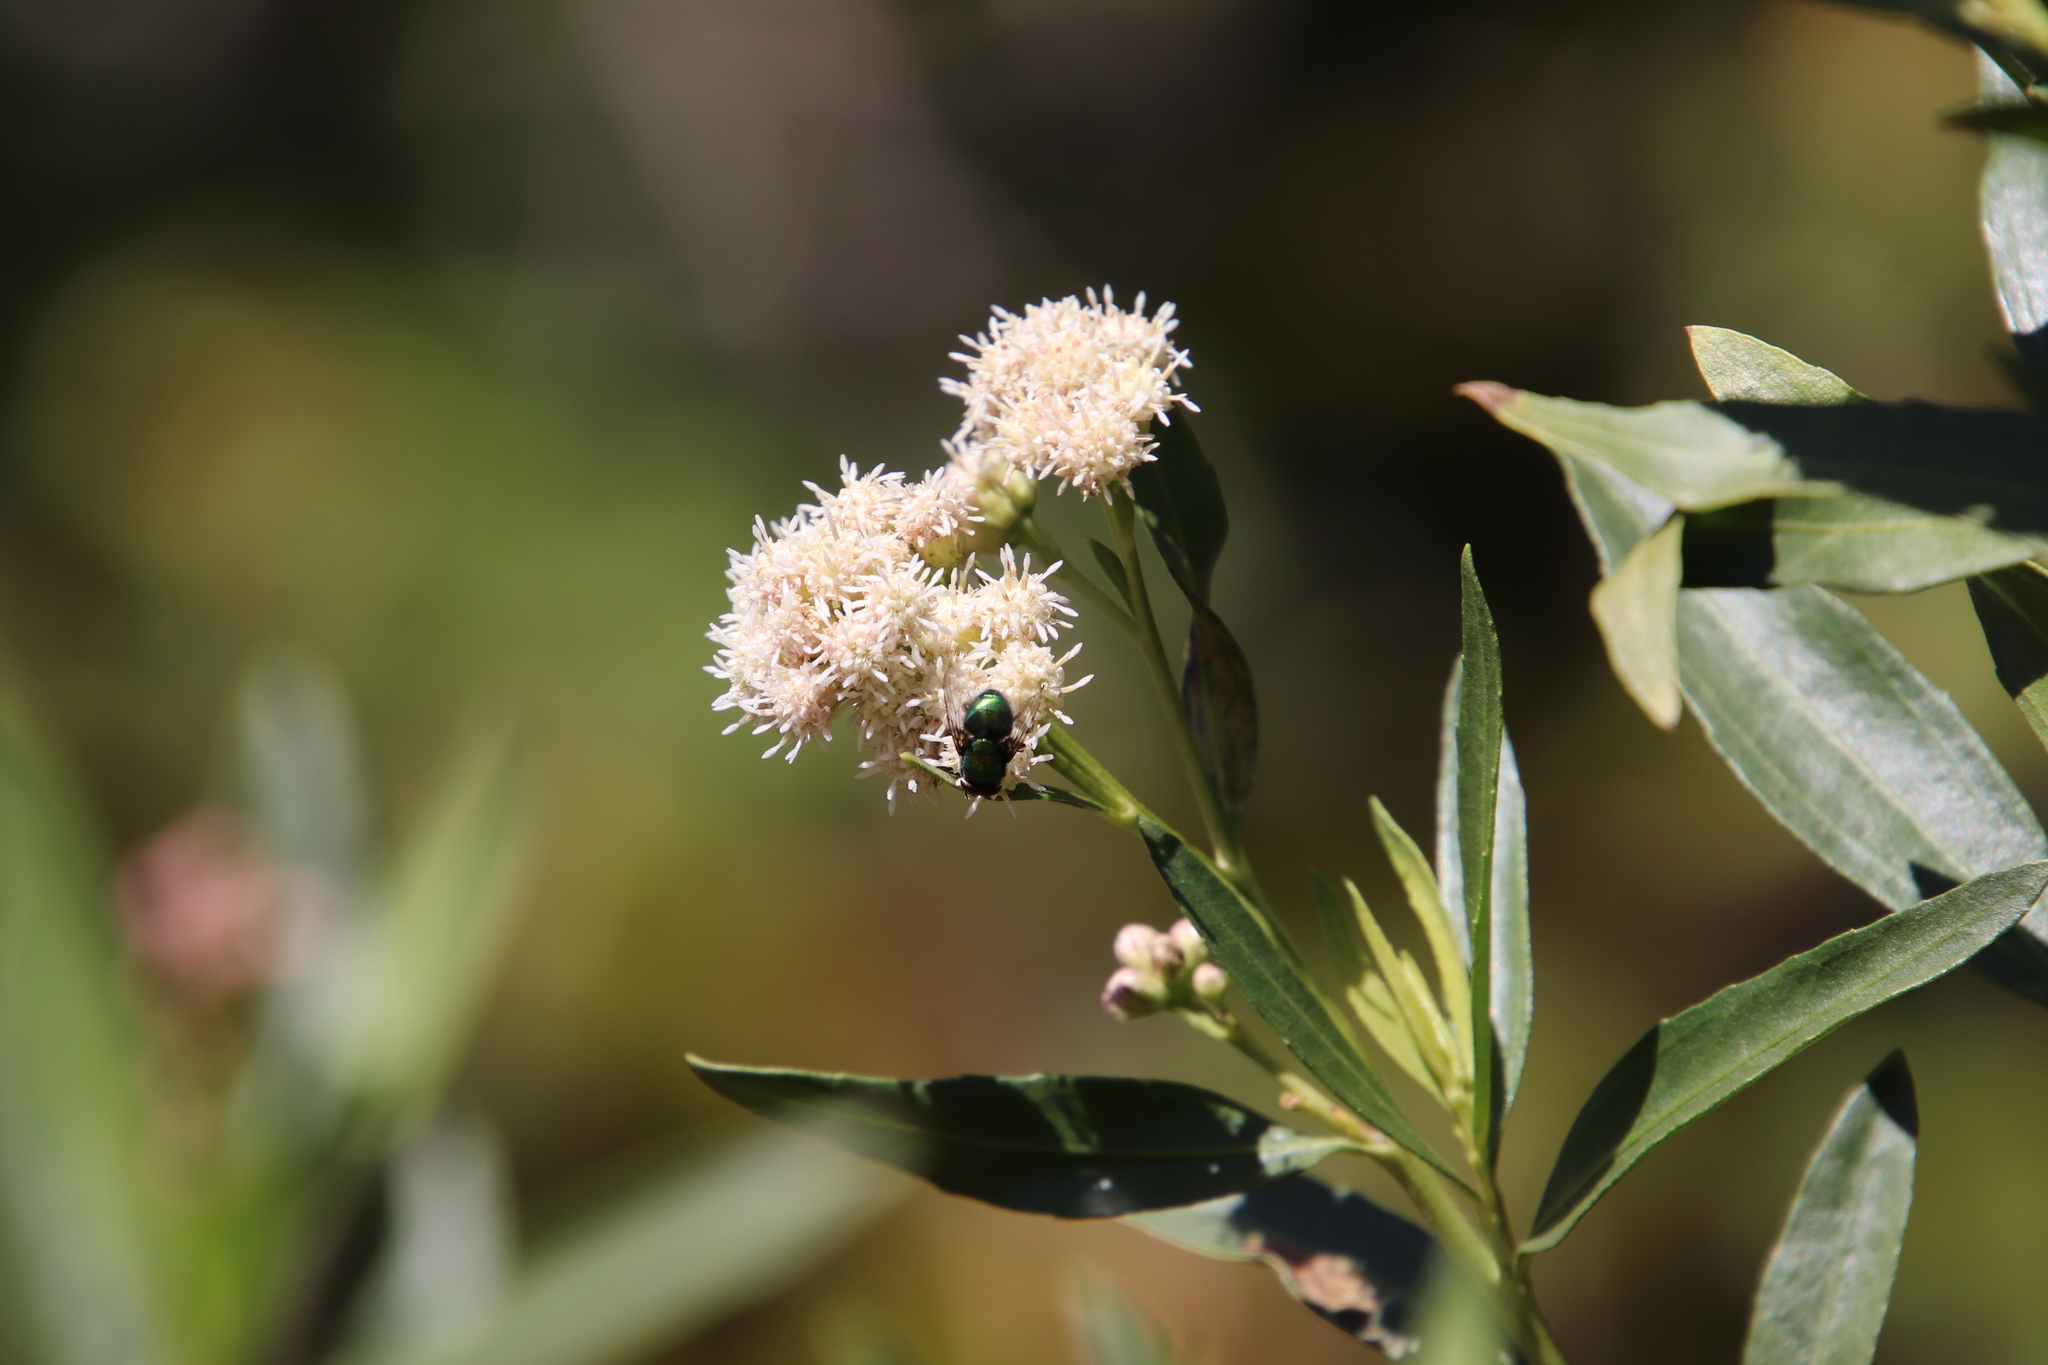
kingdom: Plantae
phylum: Tracheophyta
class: Magnoliopsida
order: Asterales
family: Asteraceae
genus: Baccharis
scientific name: Baccharis salicifolia
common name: Sticky baccharis
